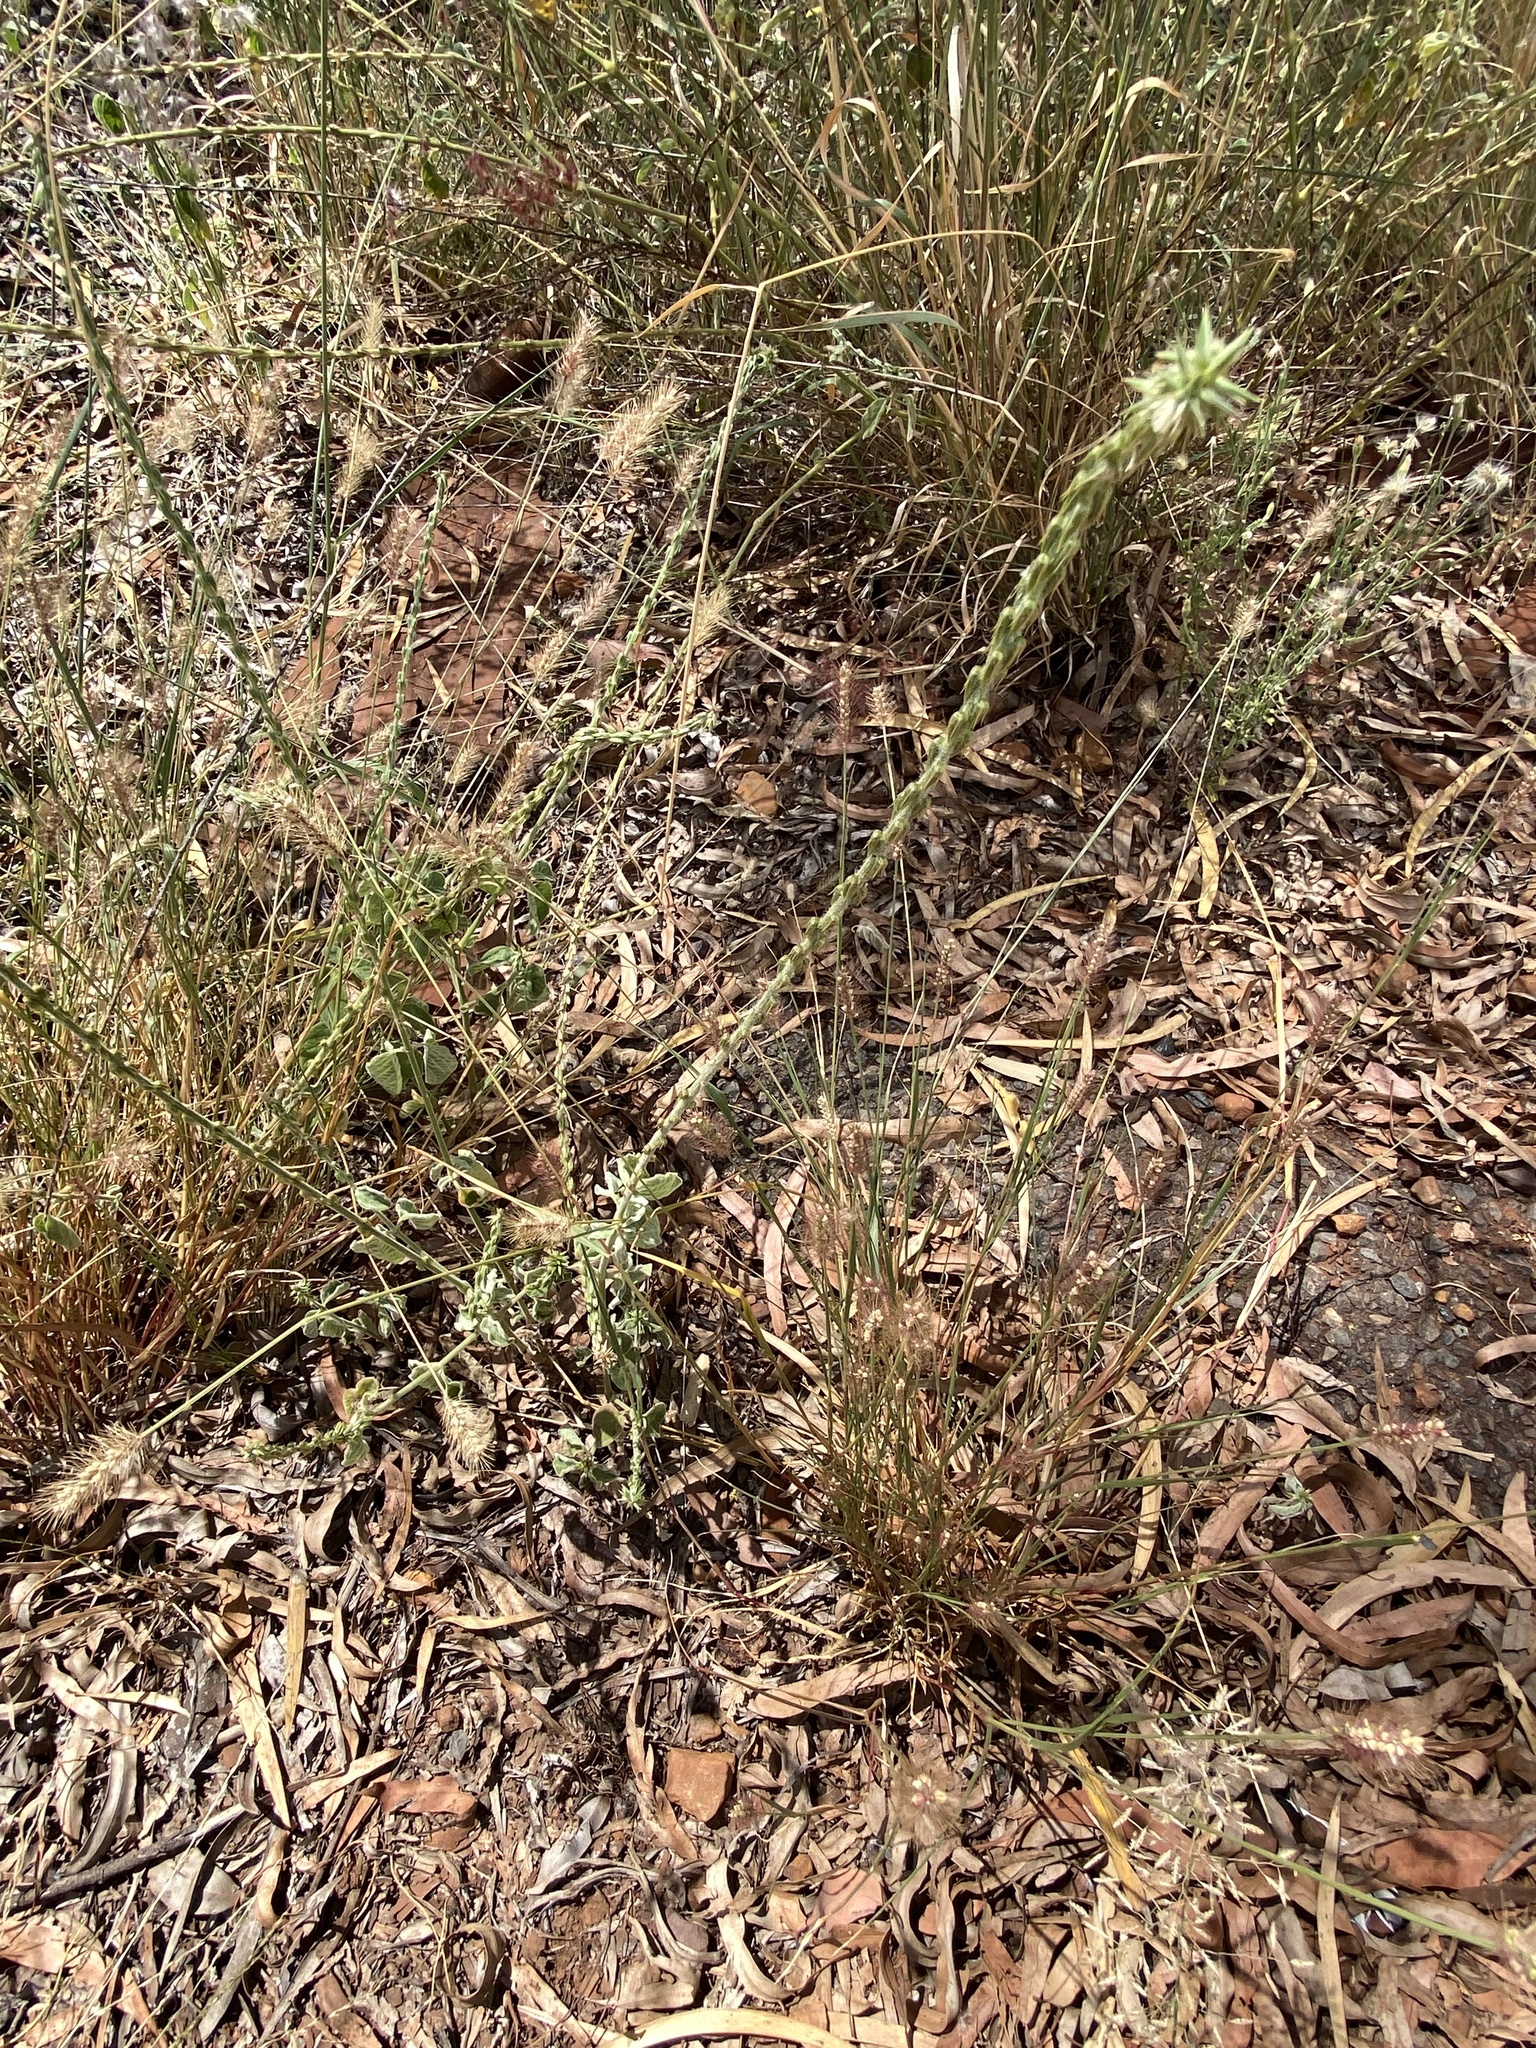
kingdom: Plantae
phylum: Tracheophyta
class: Magnoliopsida
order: Caryophyllales
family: Amaranthaceae
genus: Achyranthes
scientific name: Achyranthes aspera
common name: Devil's horsewhip
